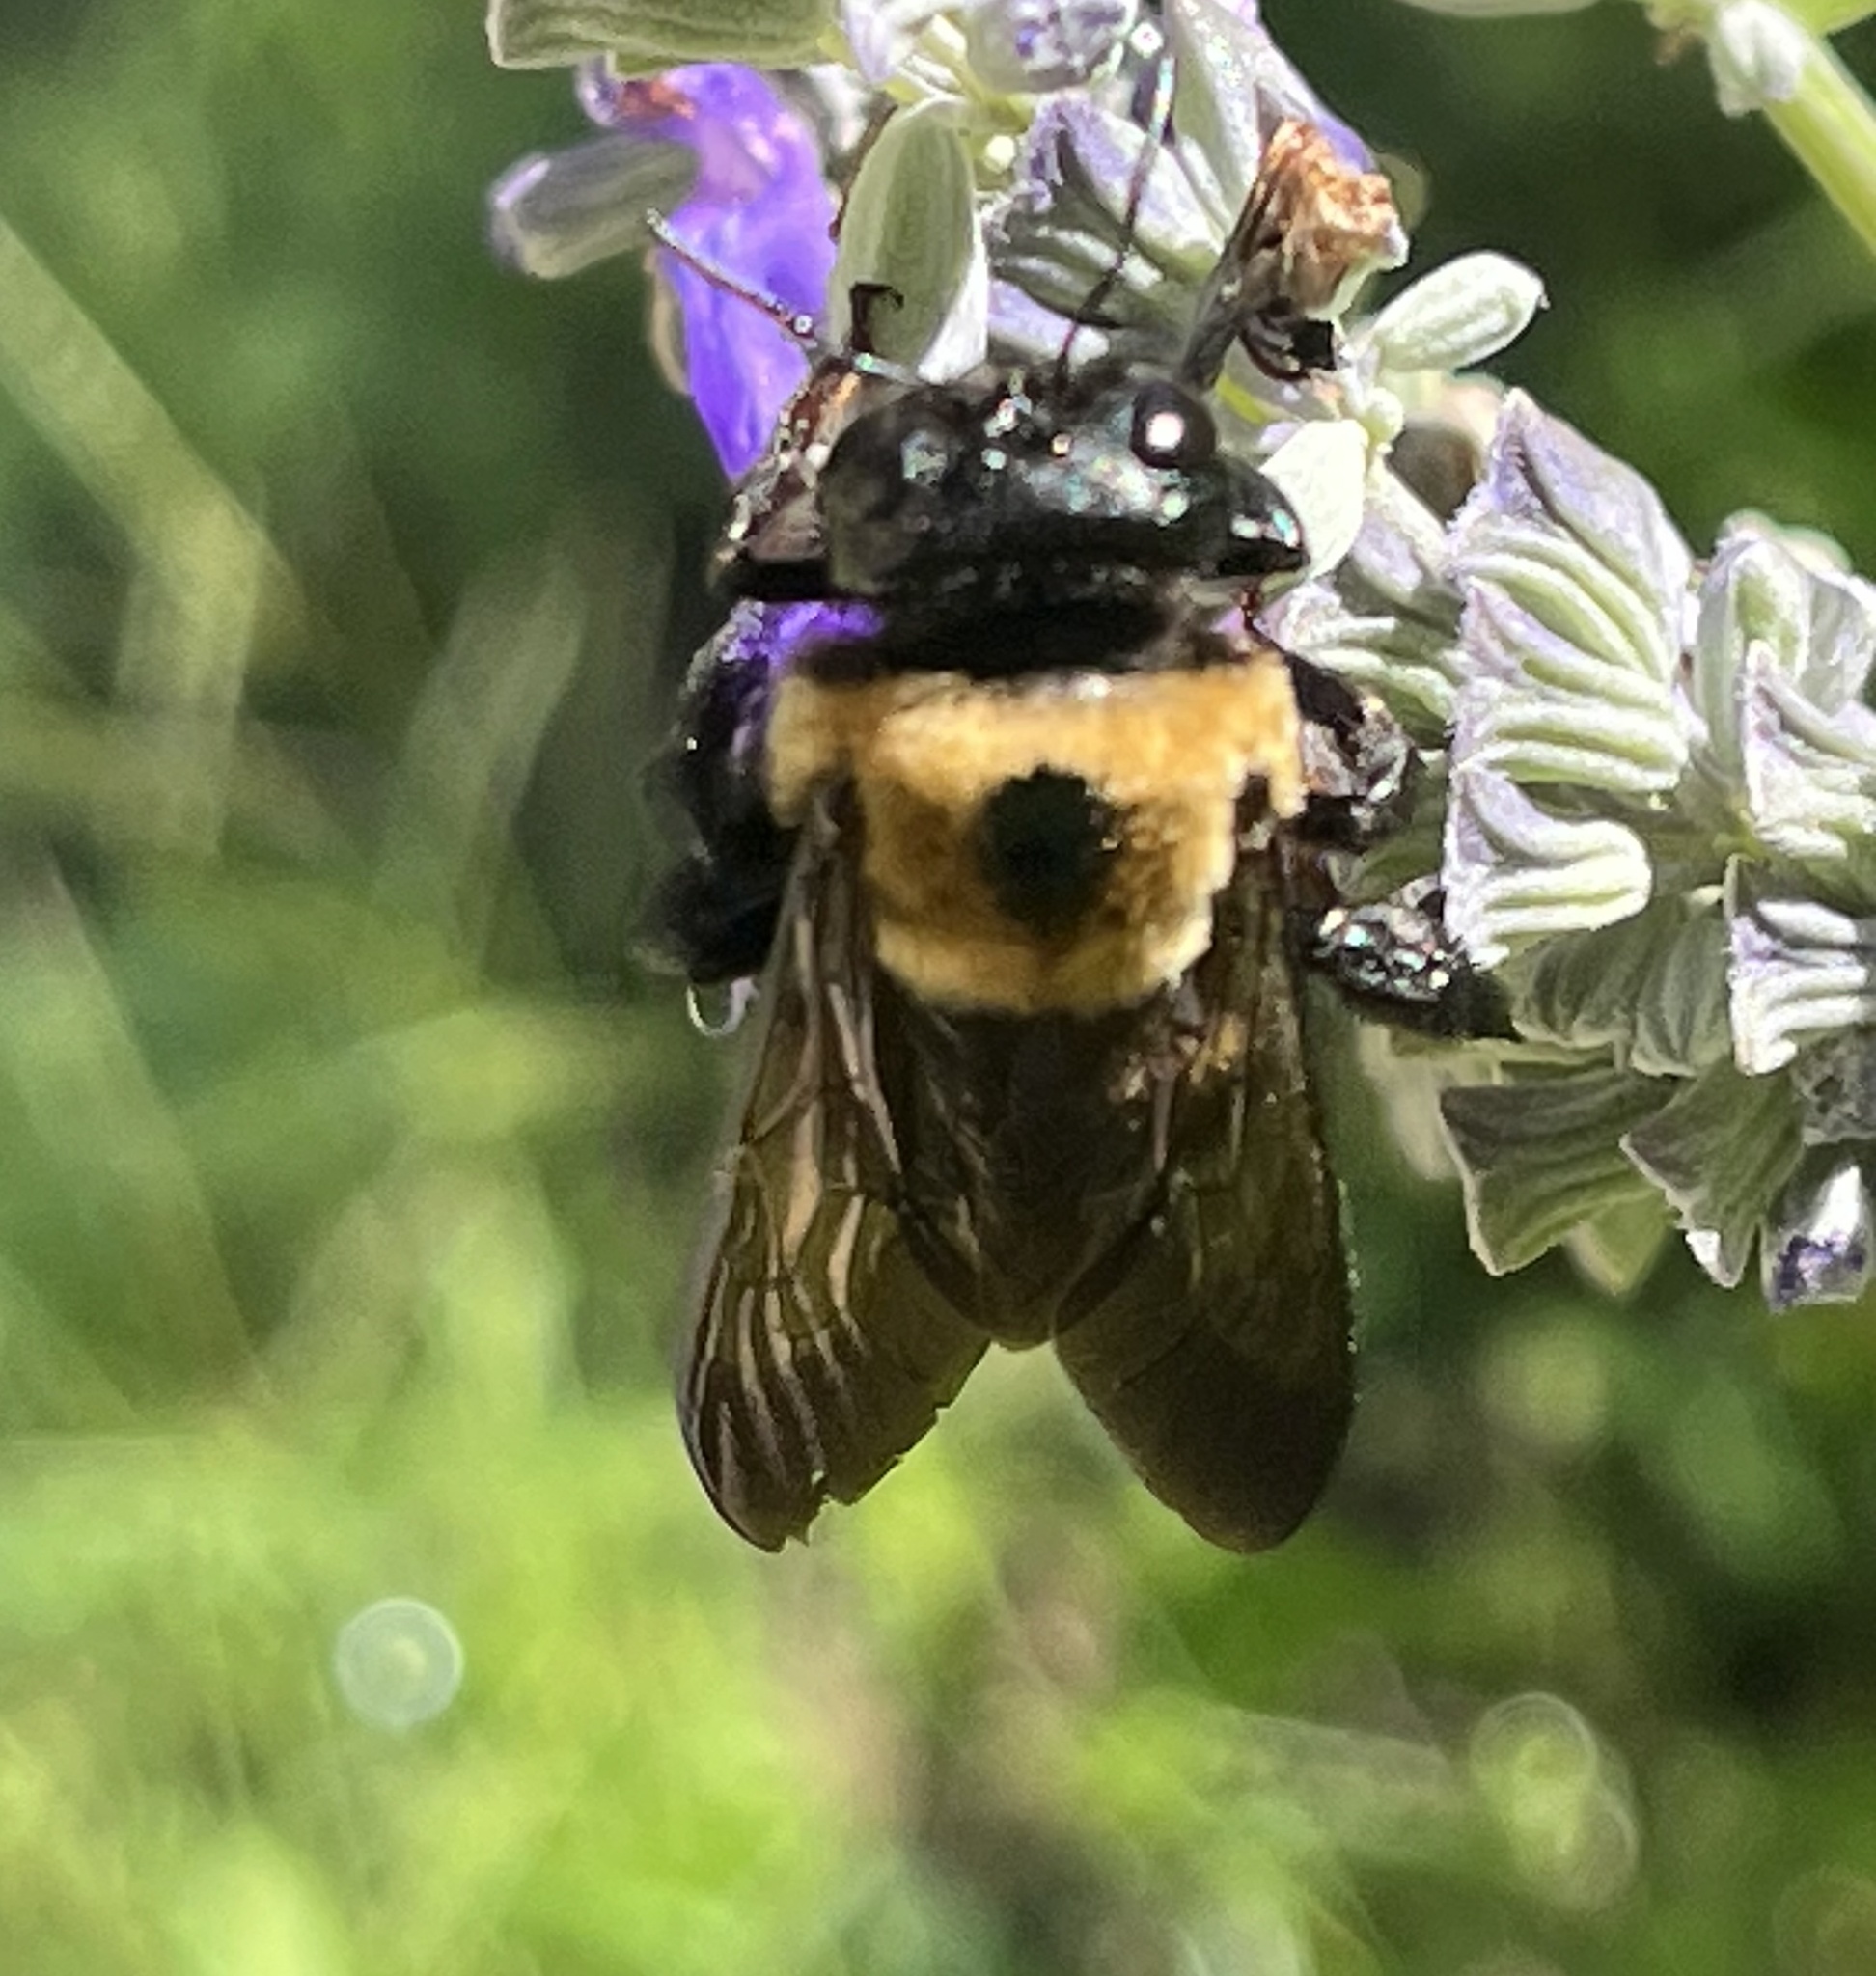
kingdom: Animalia
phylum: Arthropoda
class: Insecta
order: Hymenoptera
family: Apidae
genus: Xylocopa
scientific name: Xylocopa virginica
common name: Carpenter bee
